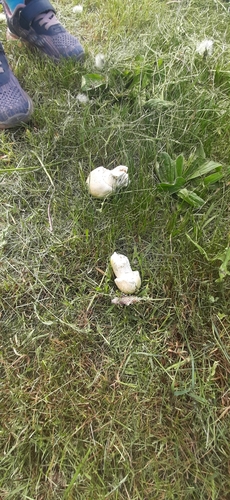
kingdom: Fungi
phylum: Basidiomycota
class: Agaricomycetes
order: Agaricales
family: Agaricaceae
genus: Agaricus
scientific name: Agaricus
